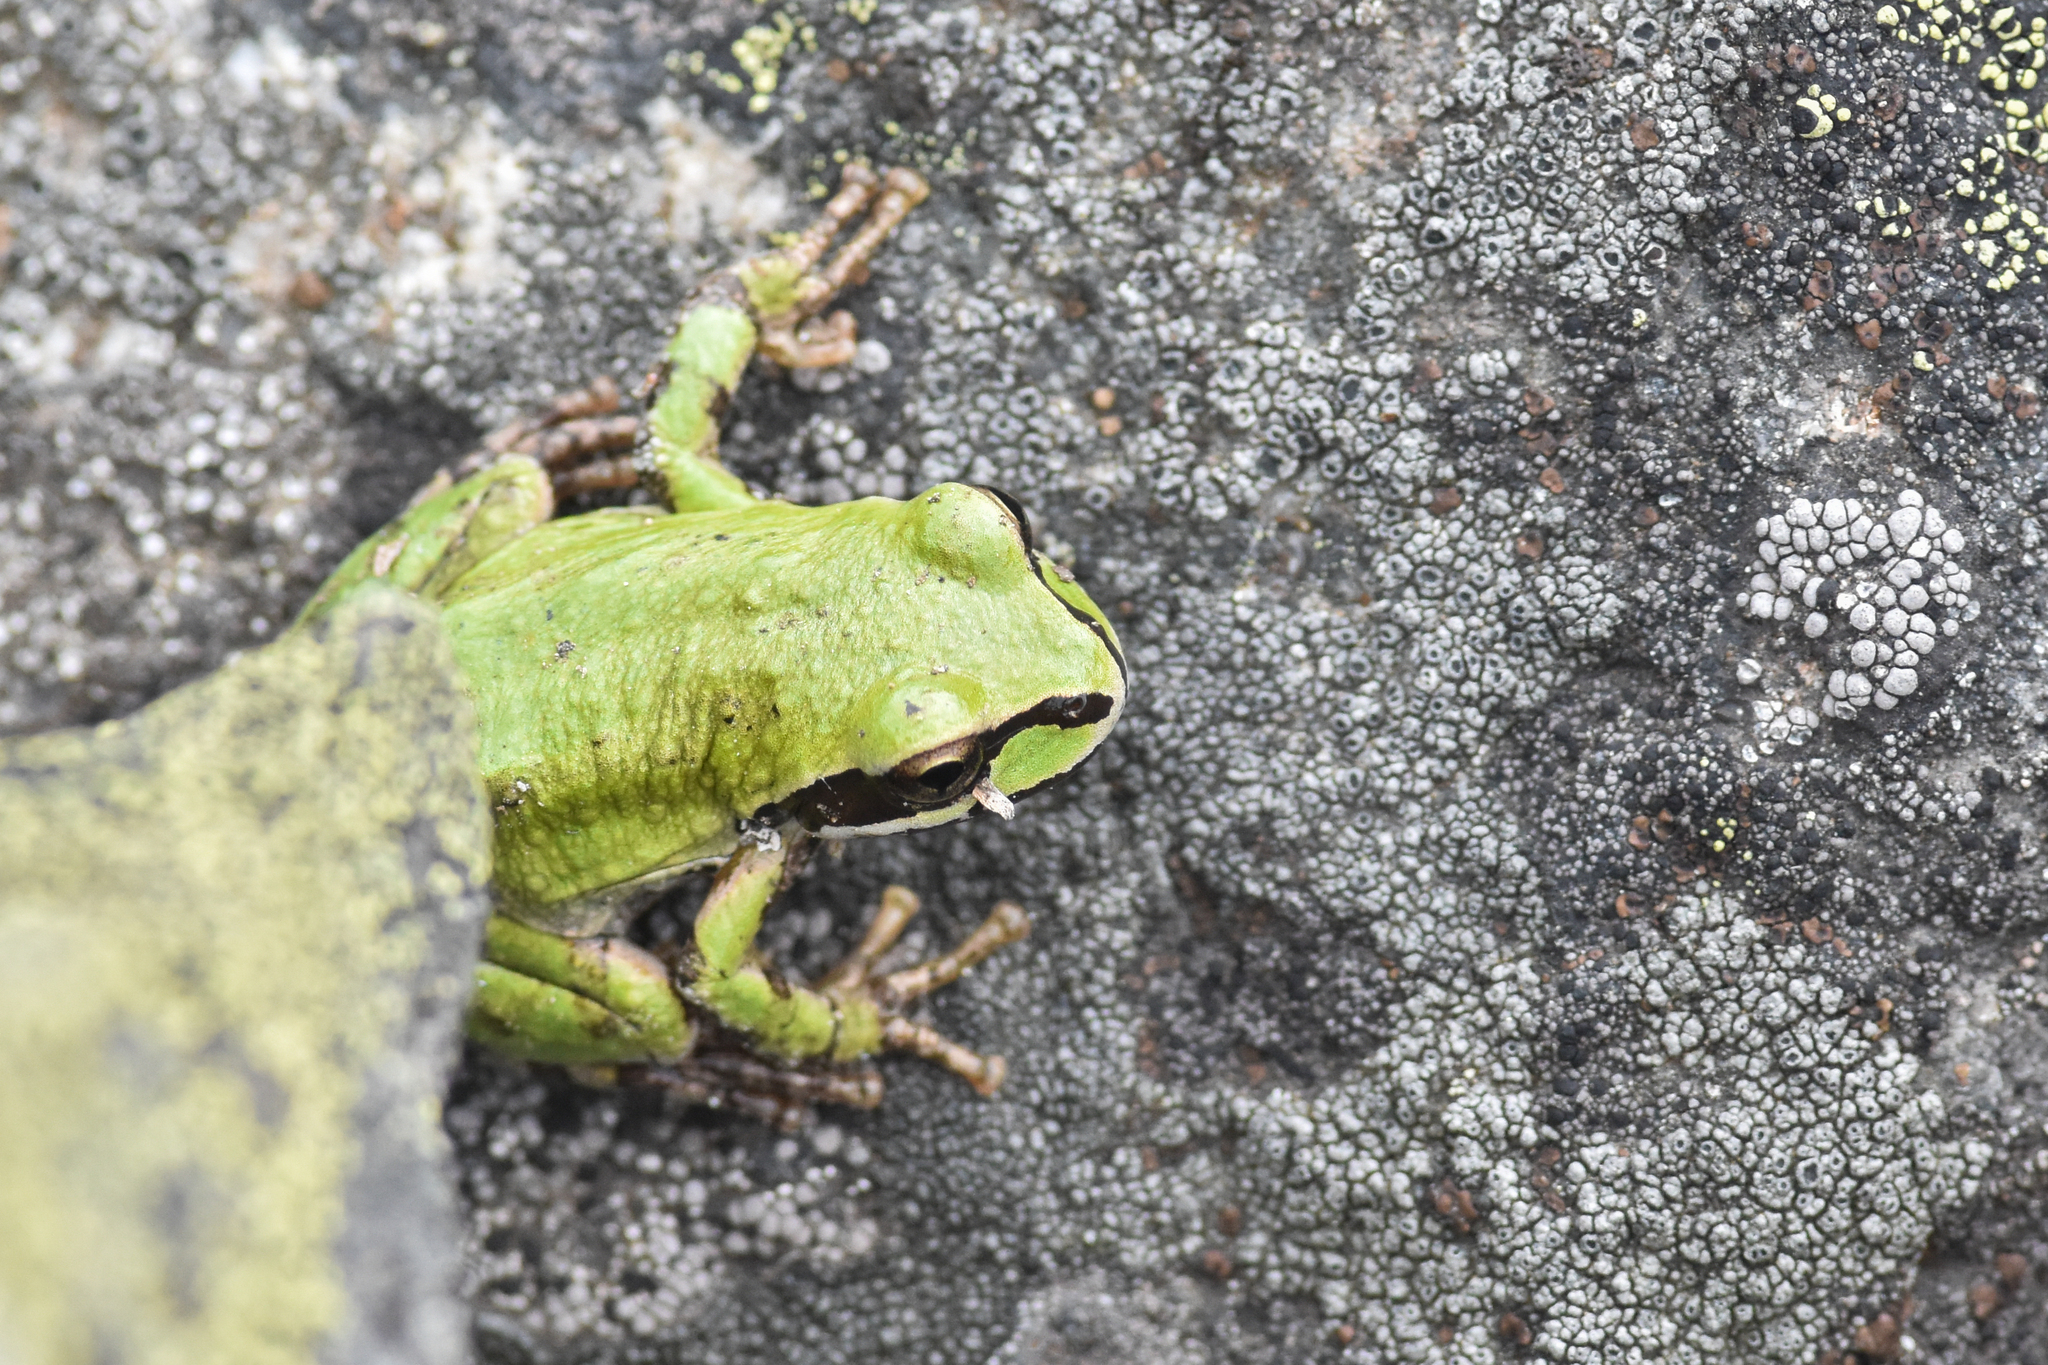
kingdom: Animalia
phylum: Chordata
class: Amphibia
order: Anura
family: Hylidae
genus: Pseudacris
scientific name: Pseudacris regilla
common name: Pacific chorus frog
